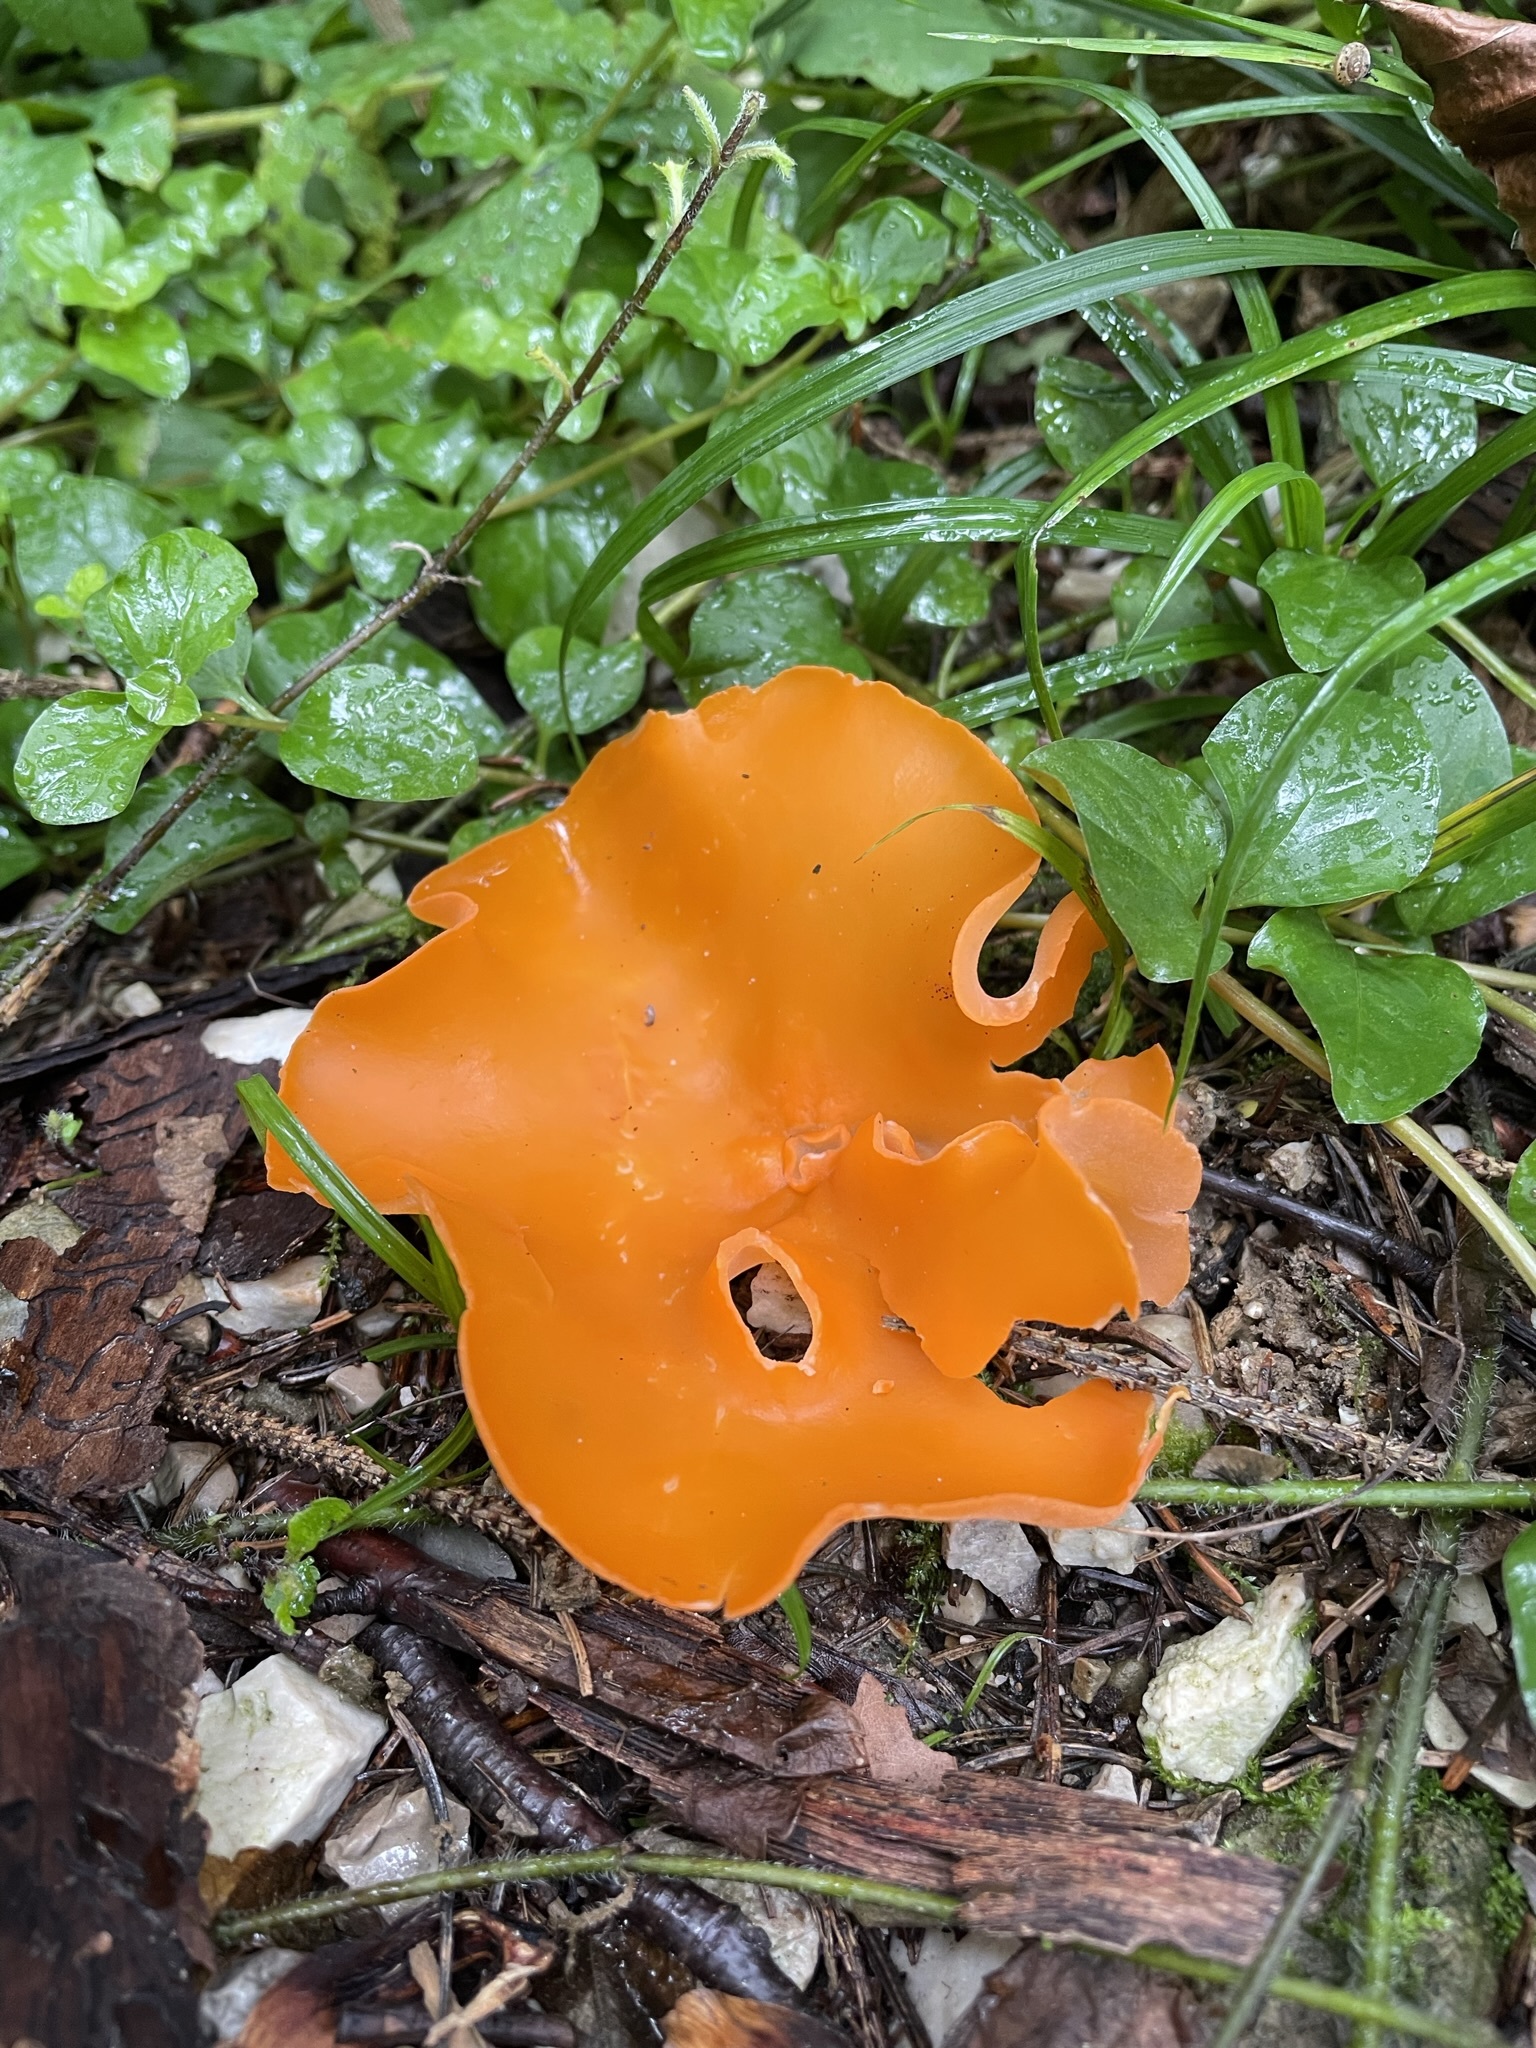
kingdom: Fungi
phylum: Ascomycota
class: Pezizomycetes
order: Pezizales
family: Pyronemataceae
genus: Aleuria
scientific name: Aleuria aurantia
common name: Orange peel fungus
